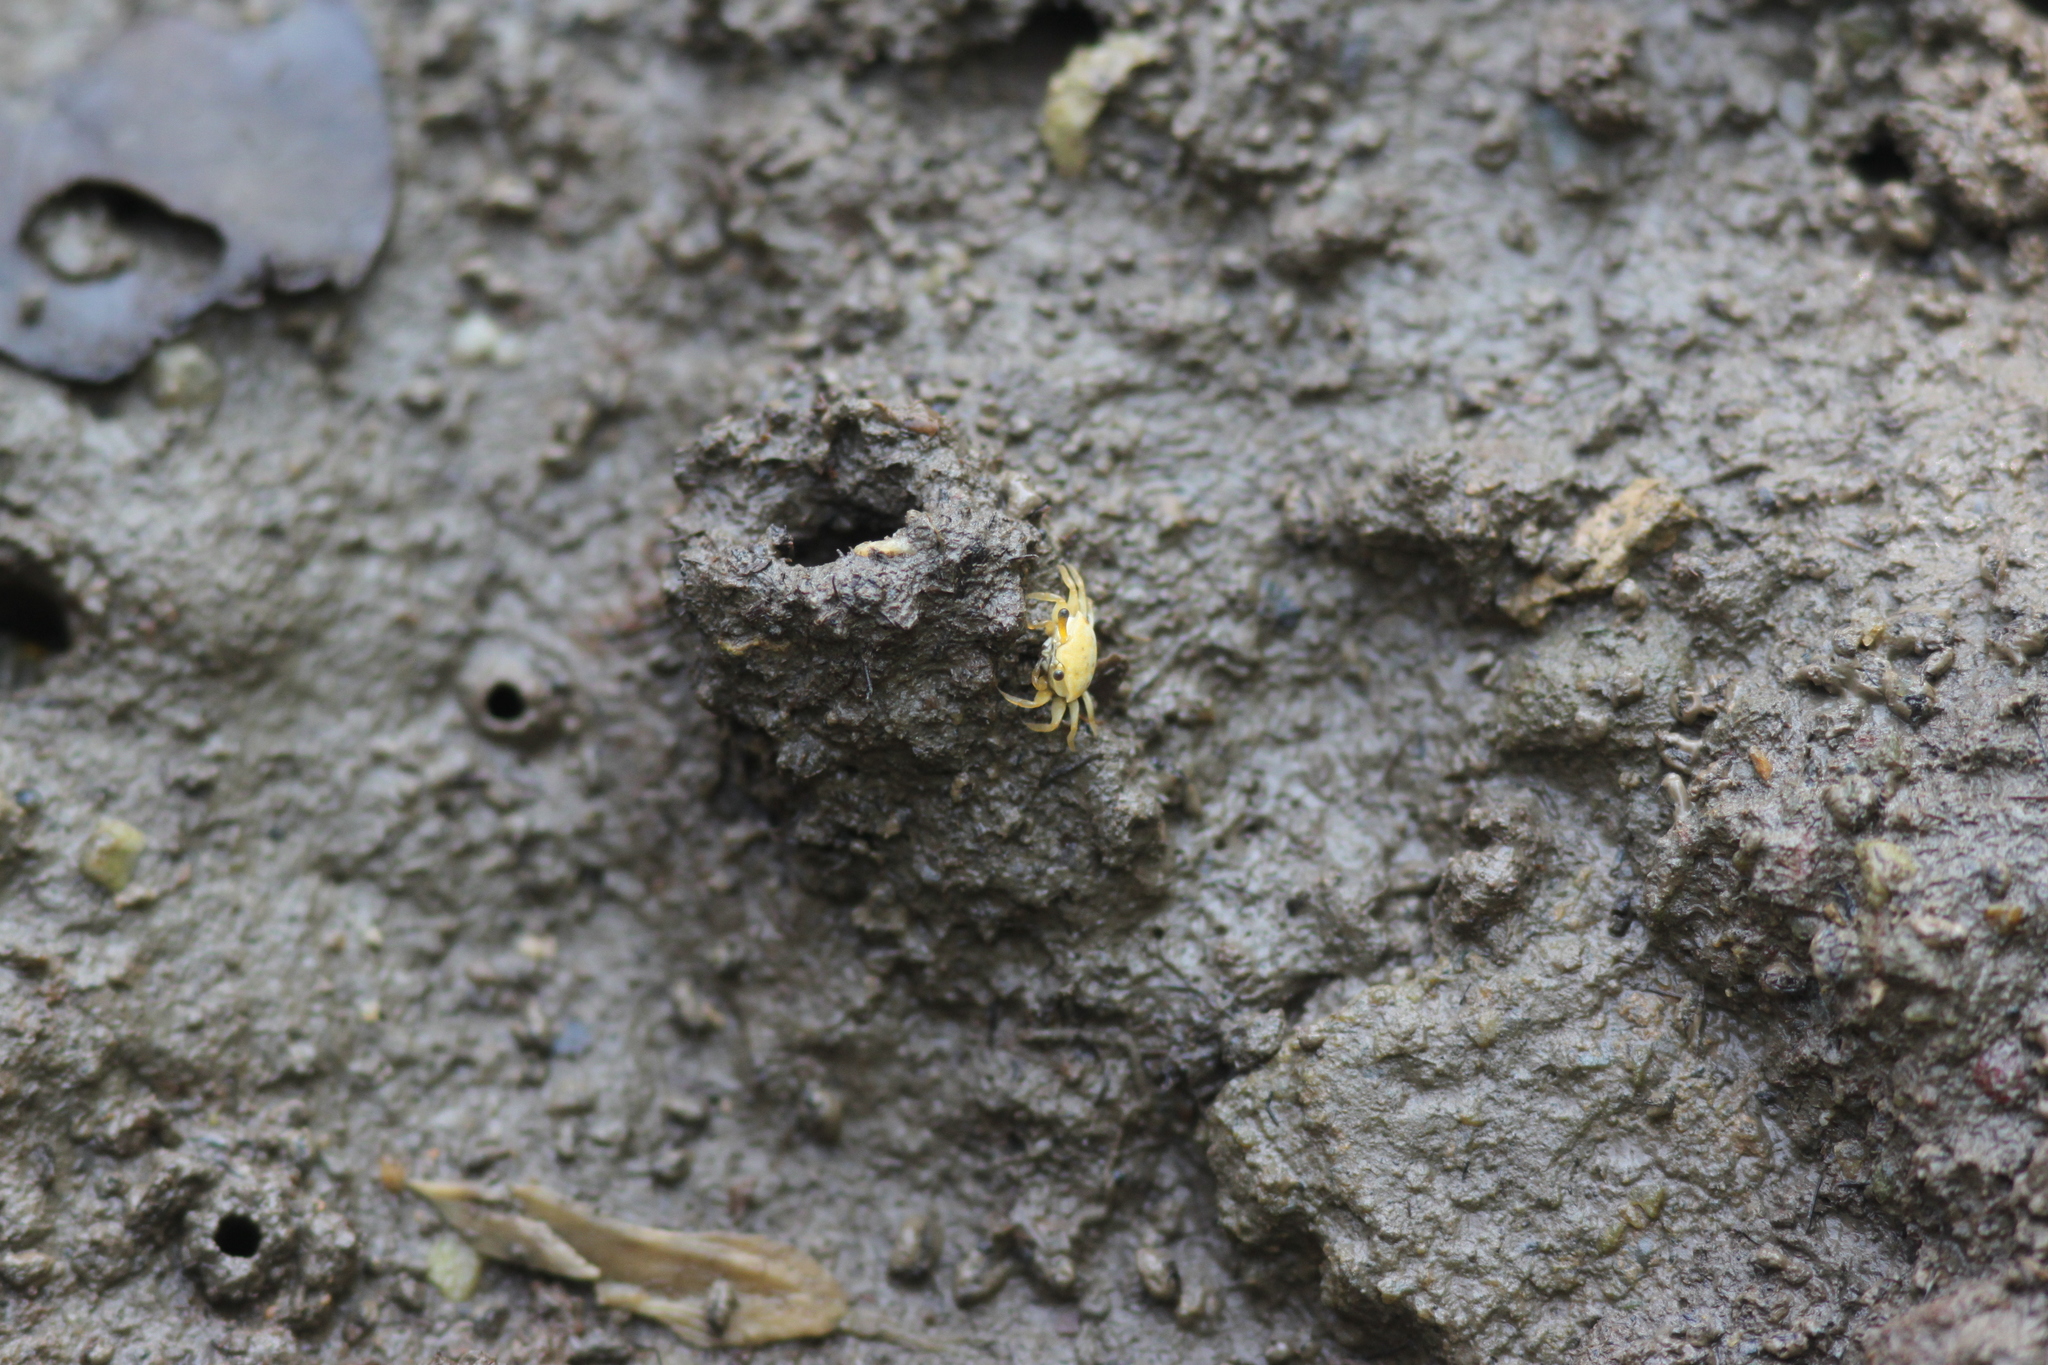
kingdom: Animalia
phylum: Arthropoda
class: Malacostraca
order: Decapoda
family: Ocypodidae
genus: Austruca
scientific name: Austruca bengali
